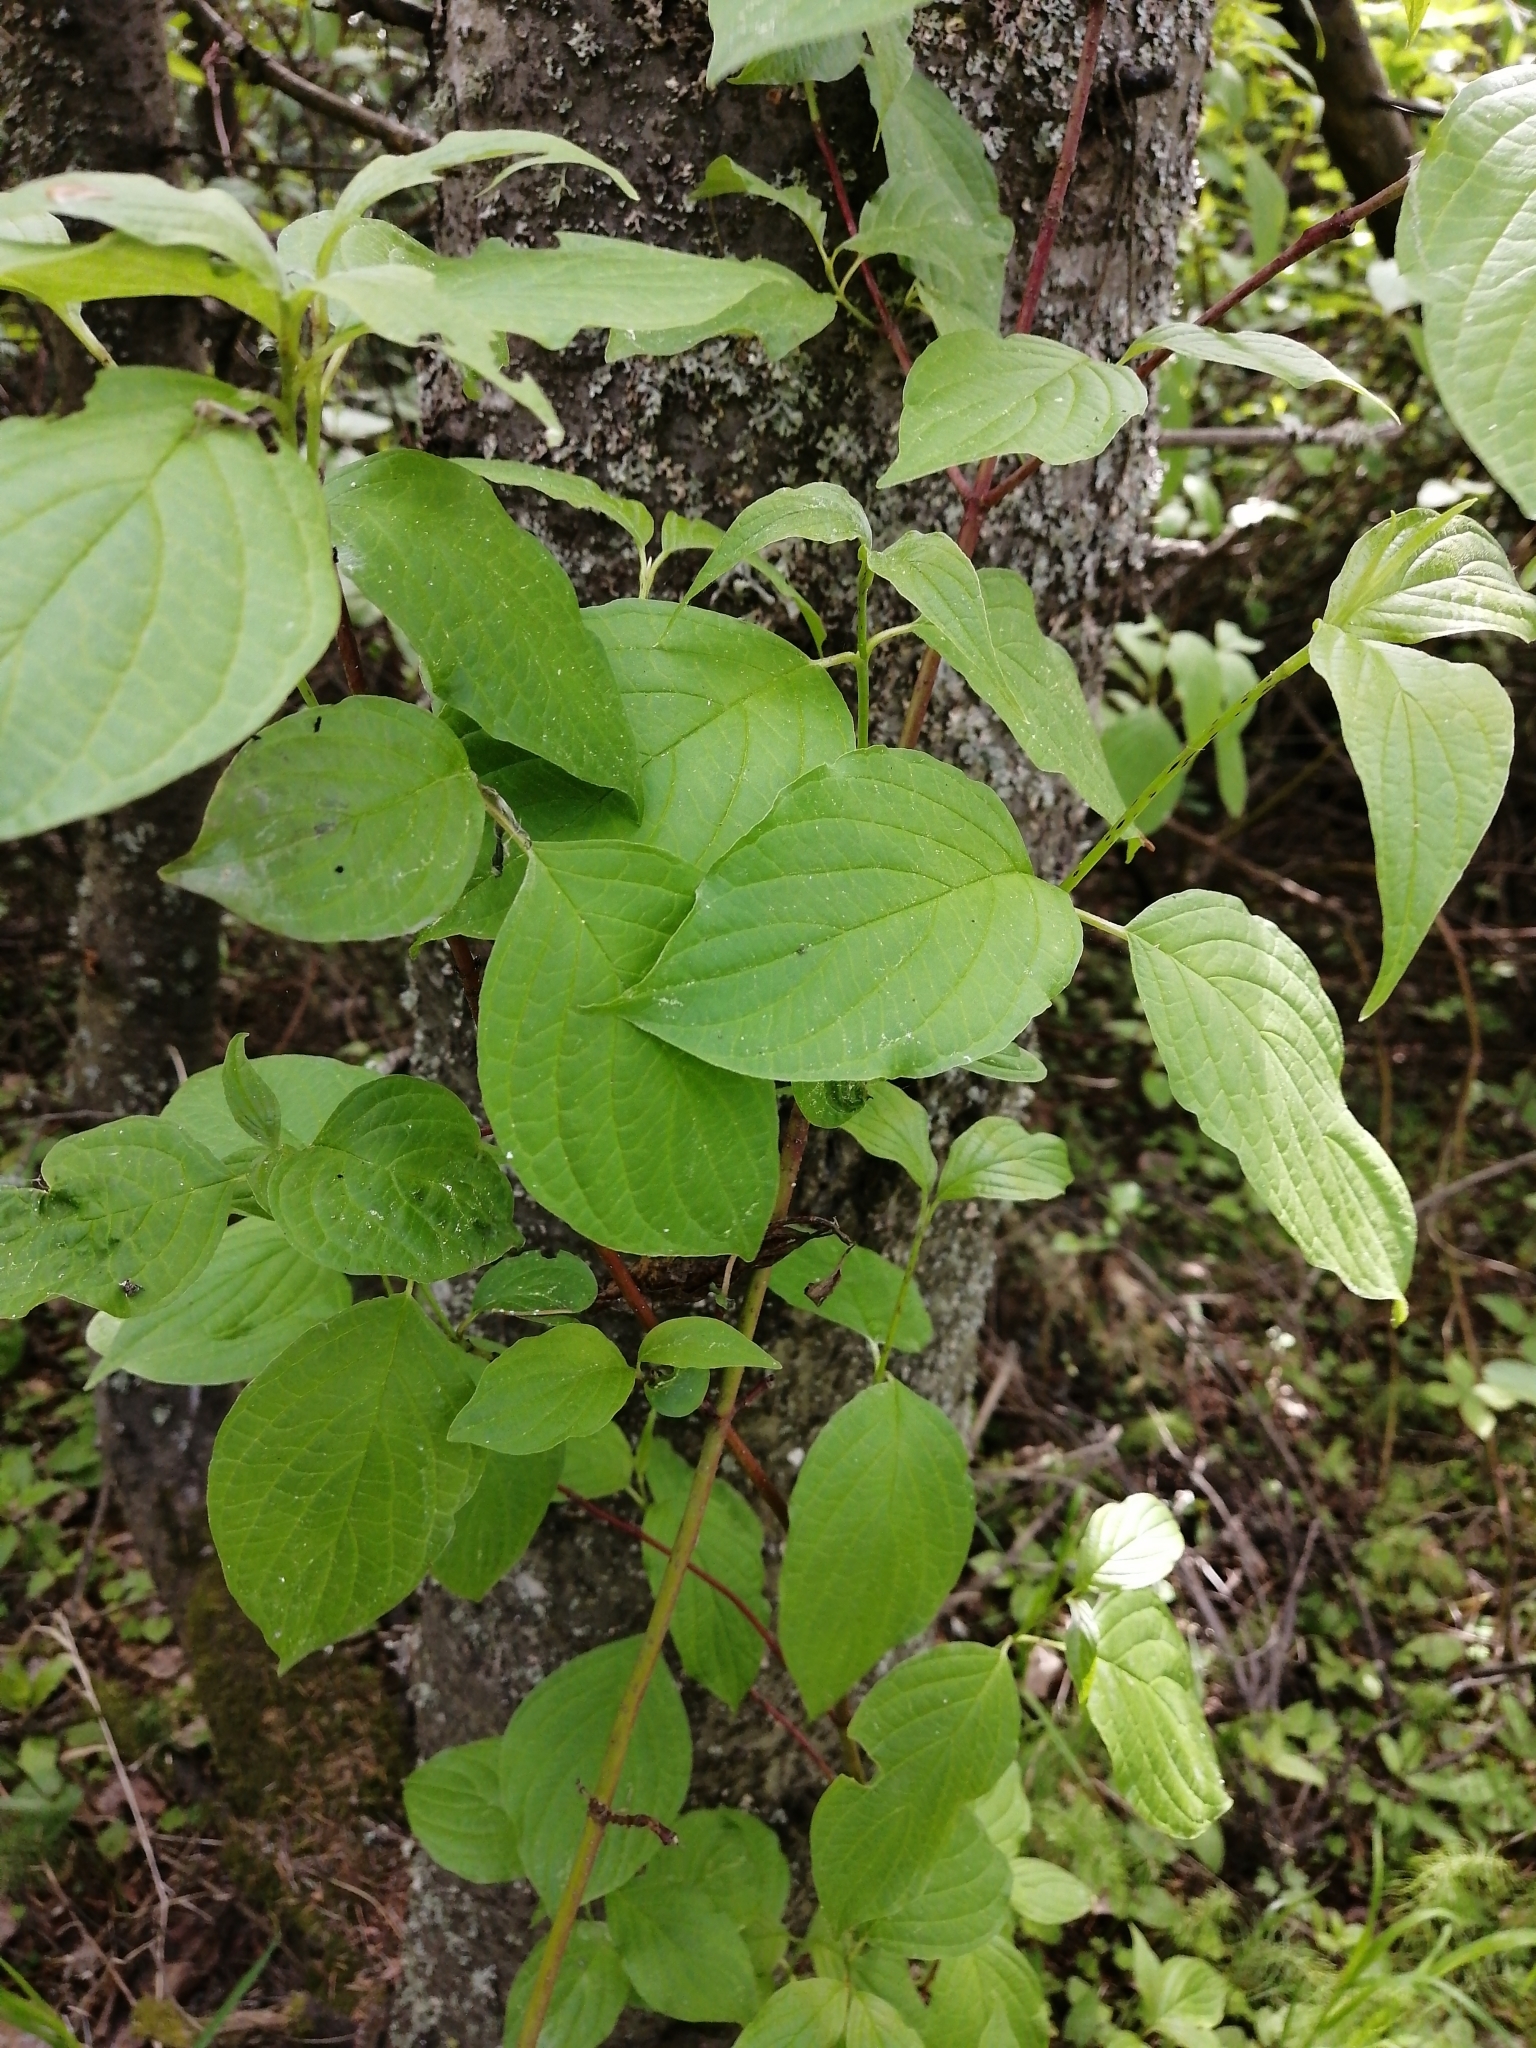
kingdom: Plantae
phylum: Tracheophyta
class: Magnoliopsida
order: Cornales
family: Cornaceae
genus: Cornus
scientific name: Cornus alba
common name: White dogwood
